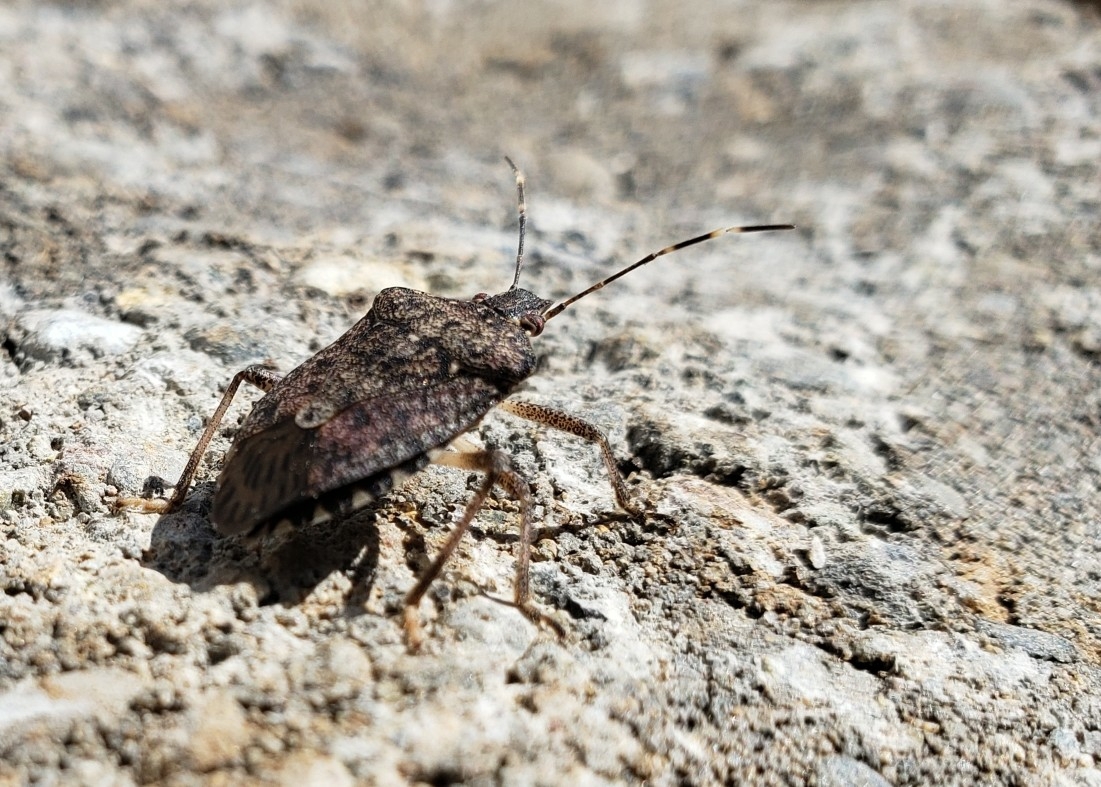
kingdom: Animalia
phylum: Arthropoda
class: Insecta
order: Hemiptera
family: Pentatomidae
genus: Halyomorpha
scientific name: Halyomorpha halys
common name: Brown marmorated stink bug
